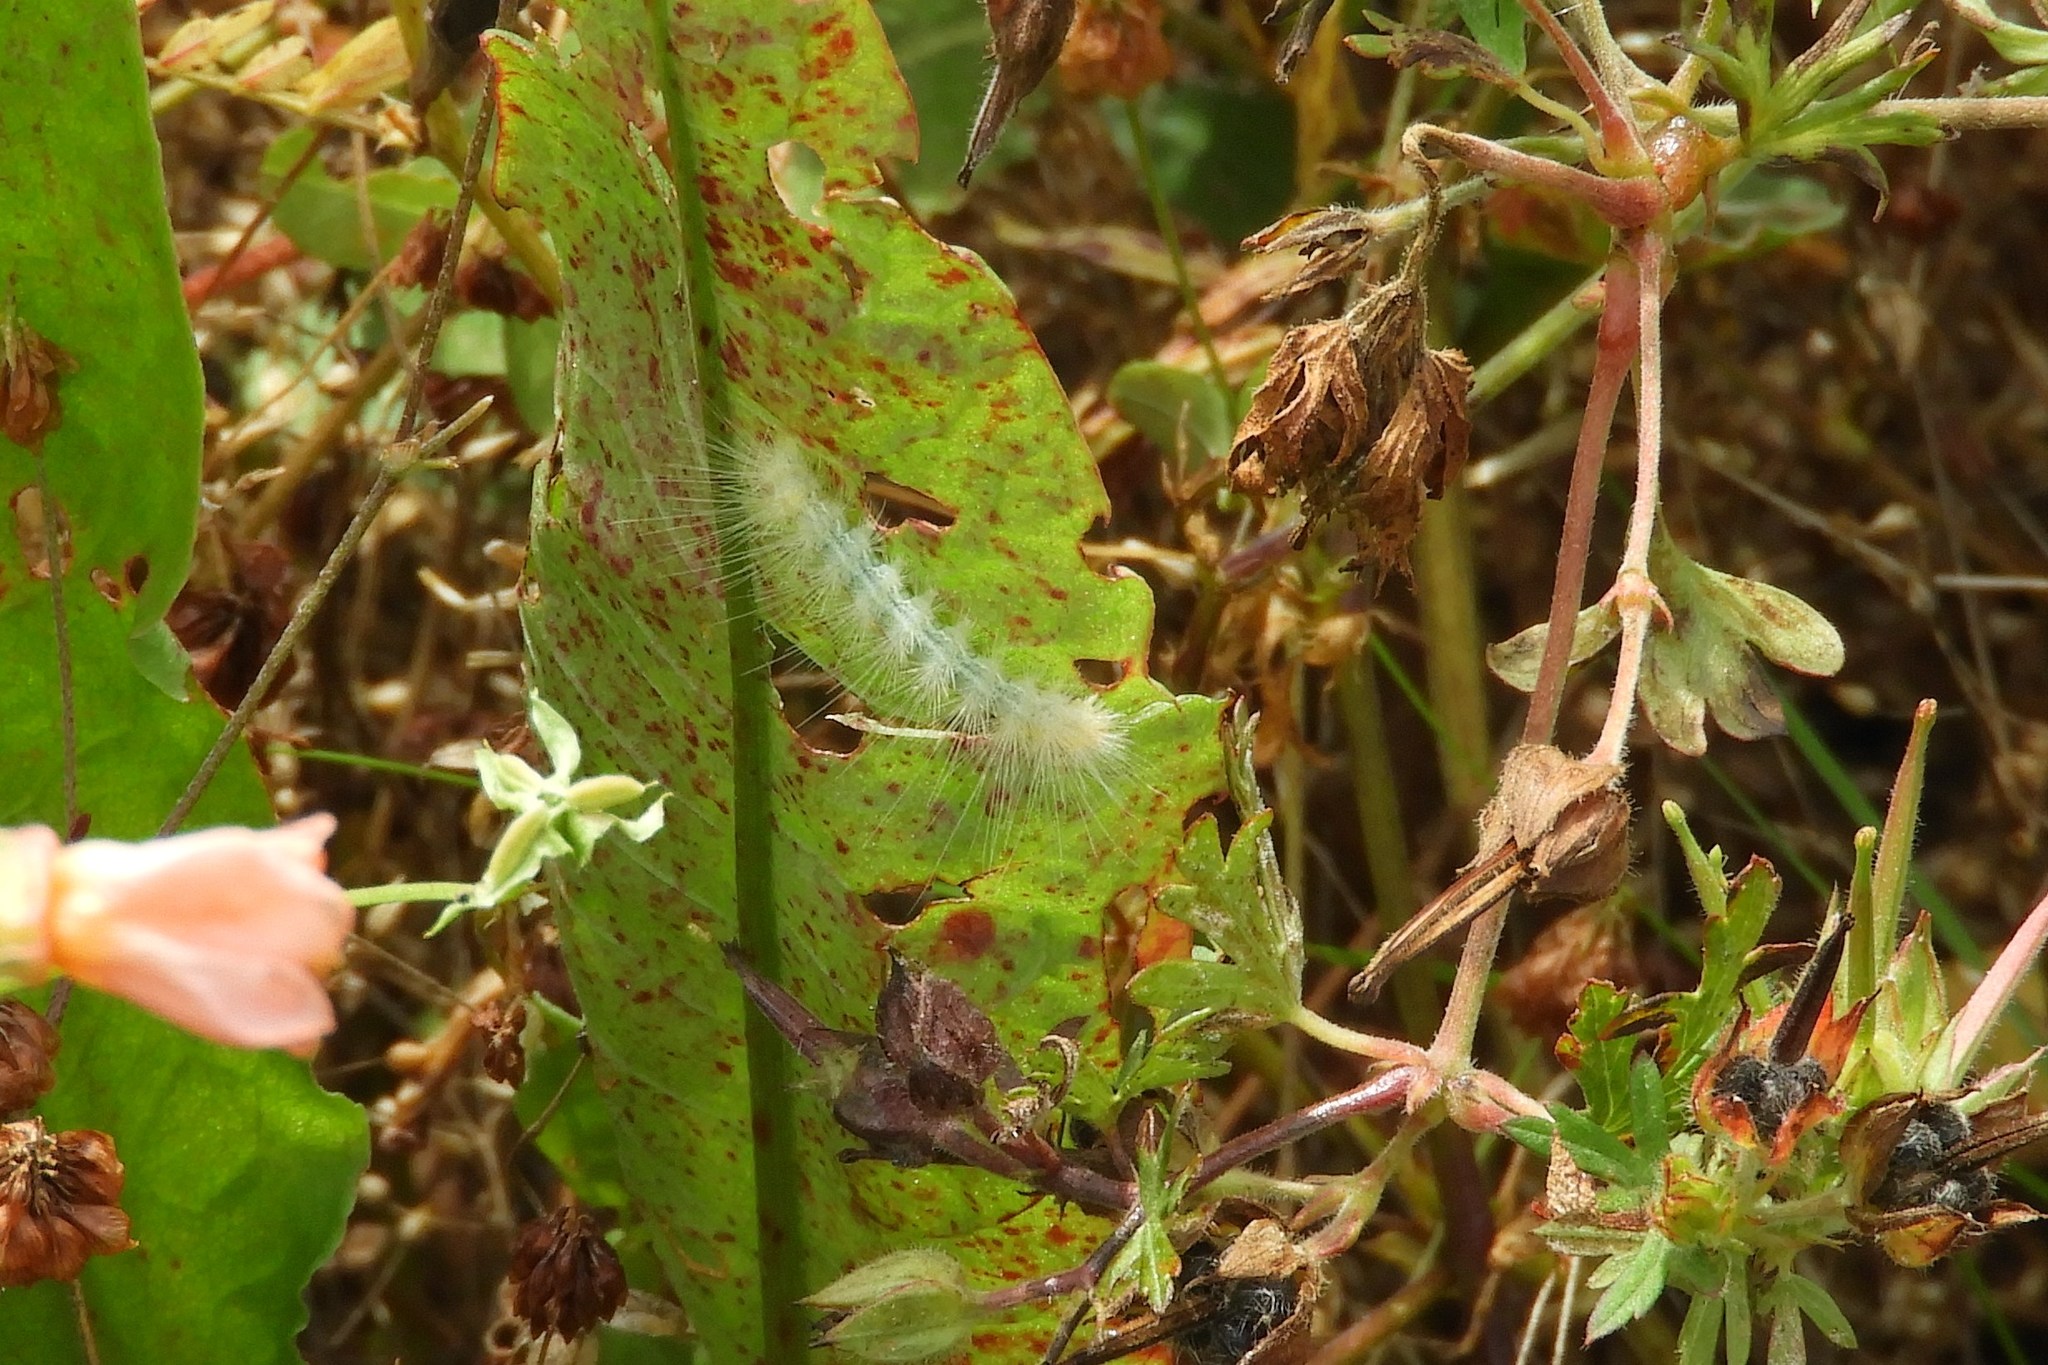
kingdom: Animalia
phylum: Arthropoda
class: Insecta
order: Lepidoptera
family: Erebidae
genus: Spilosoma
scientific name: Spilosoma virginica
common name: Virginia tiger moth
